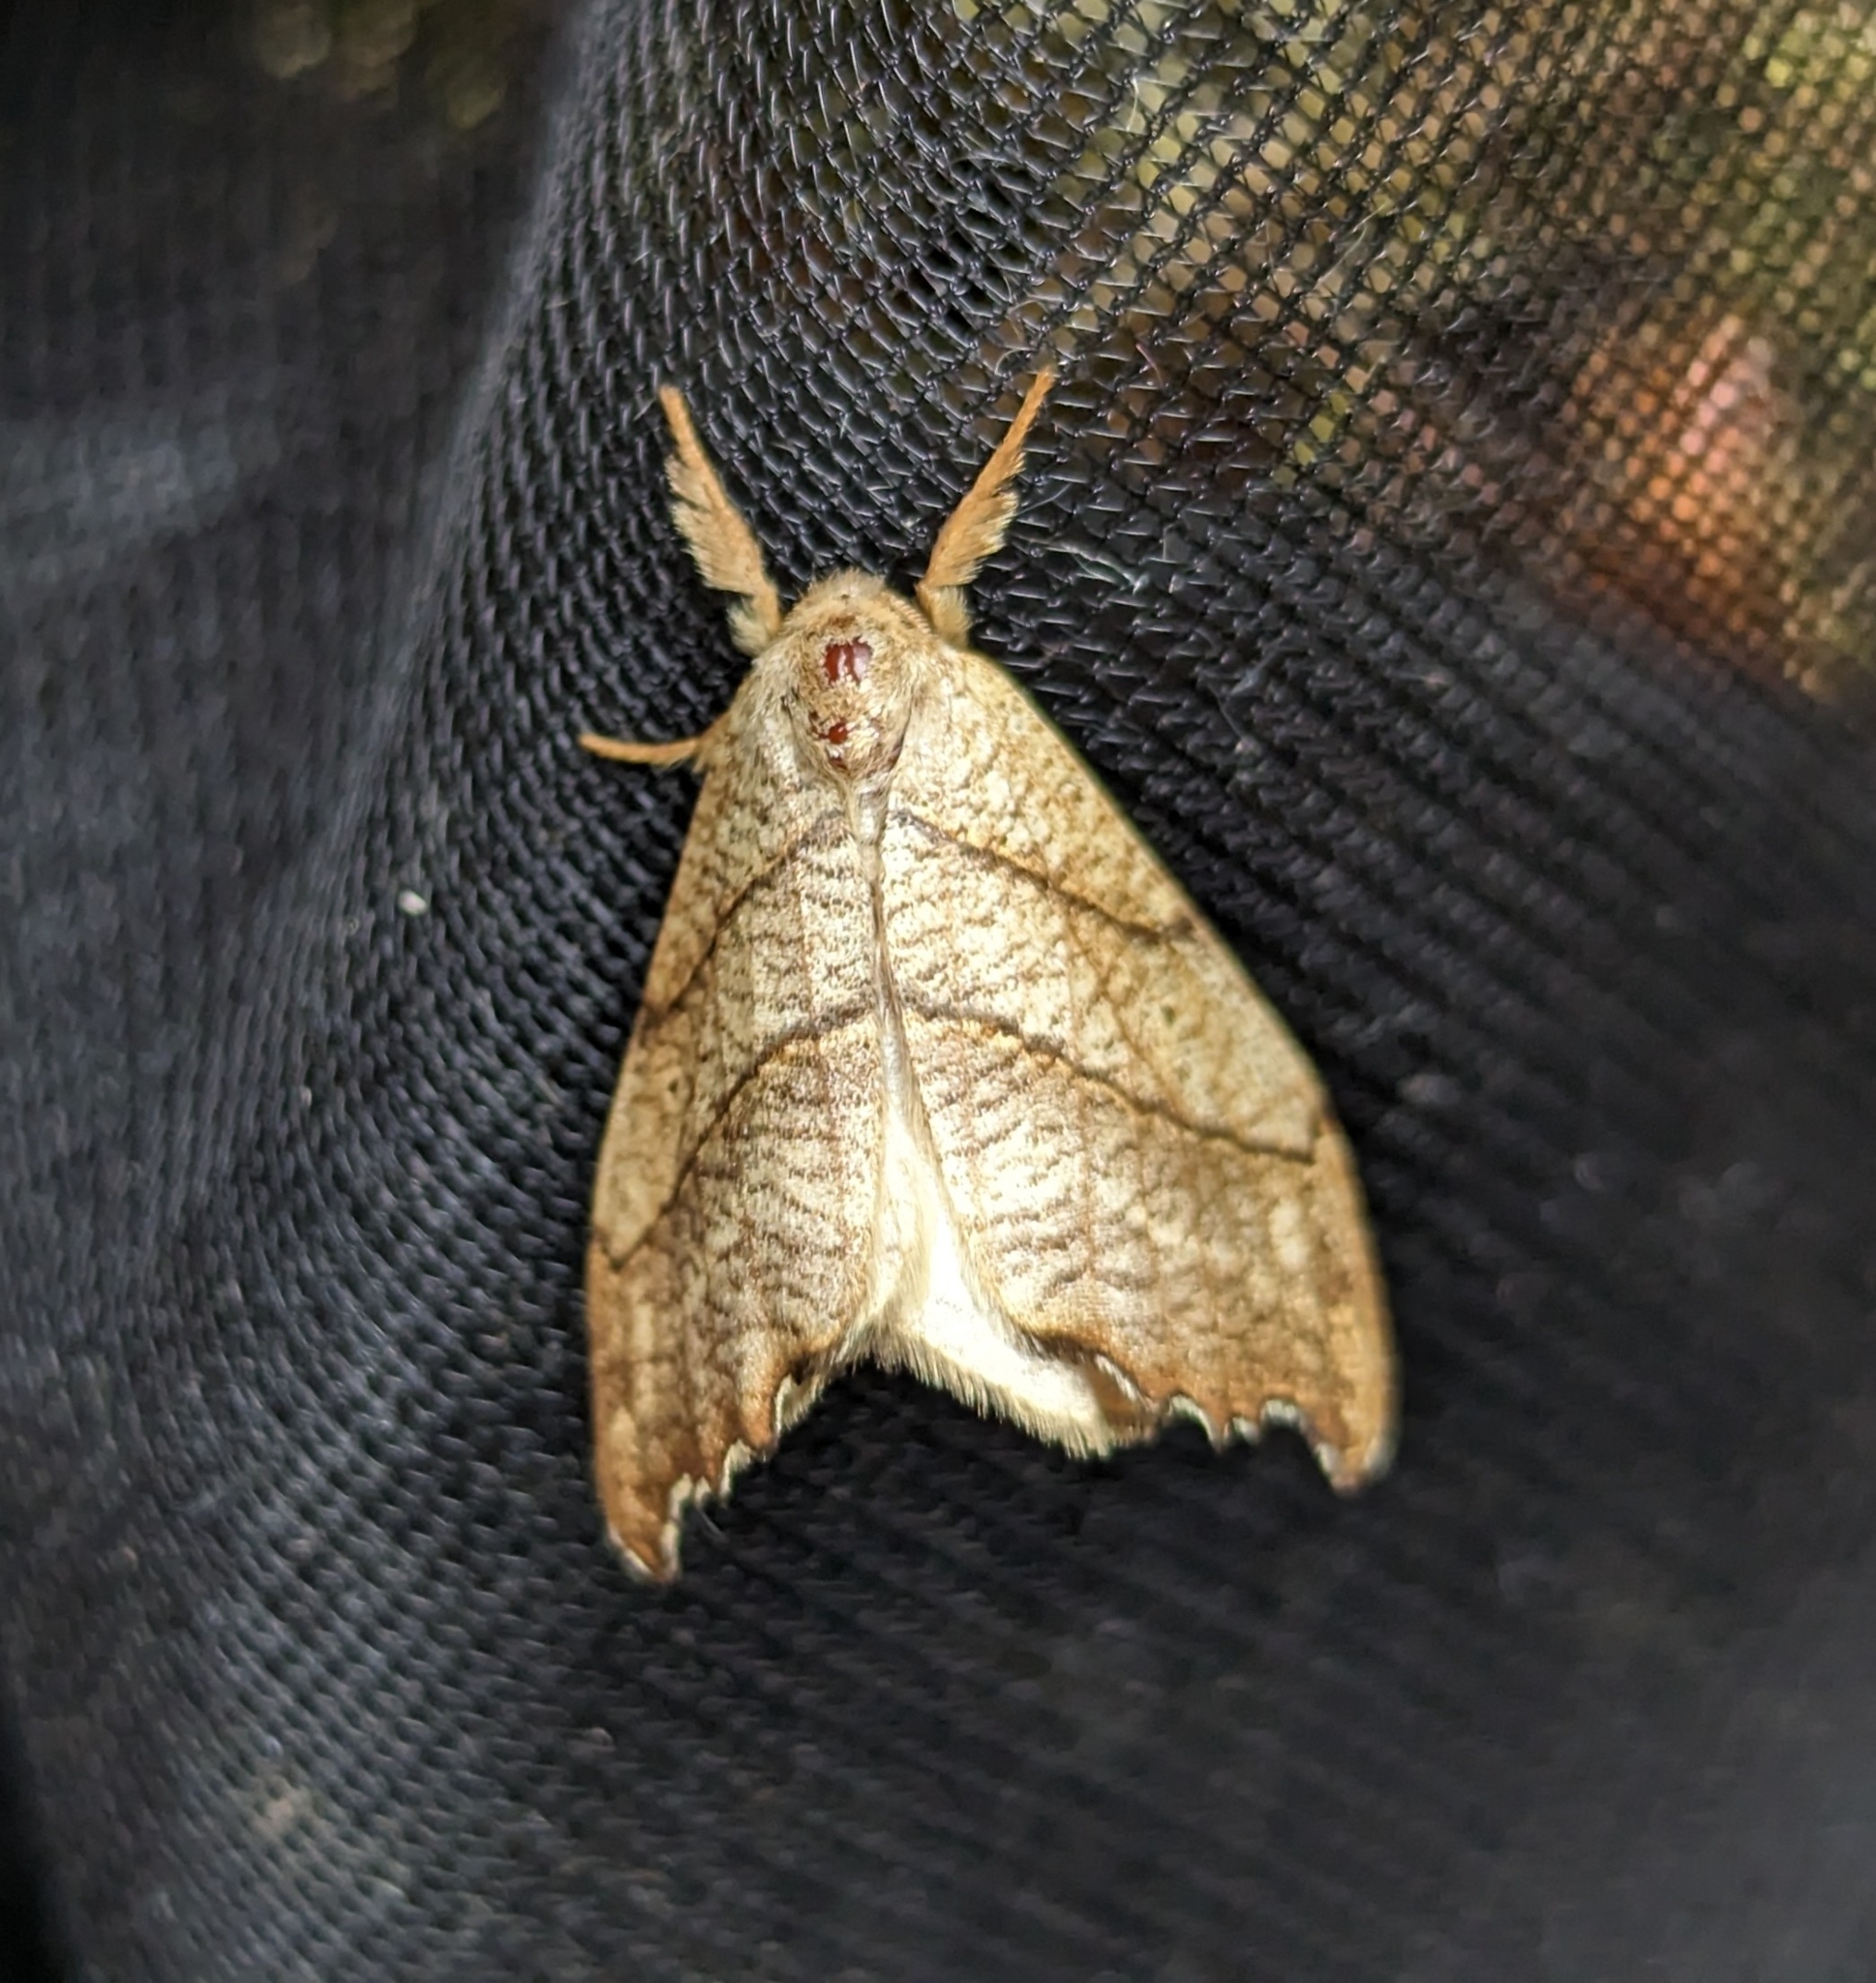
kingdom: Animalia
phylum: Arthropoda
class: Insecta
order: Lepidoptera
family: Drepanidae
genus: Falcaria
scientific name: Falcaria bilineata
